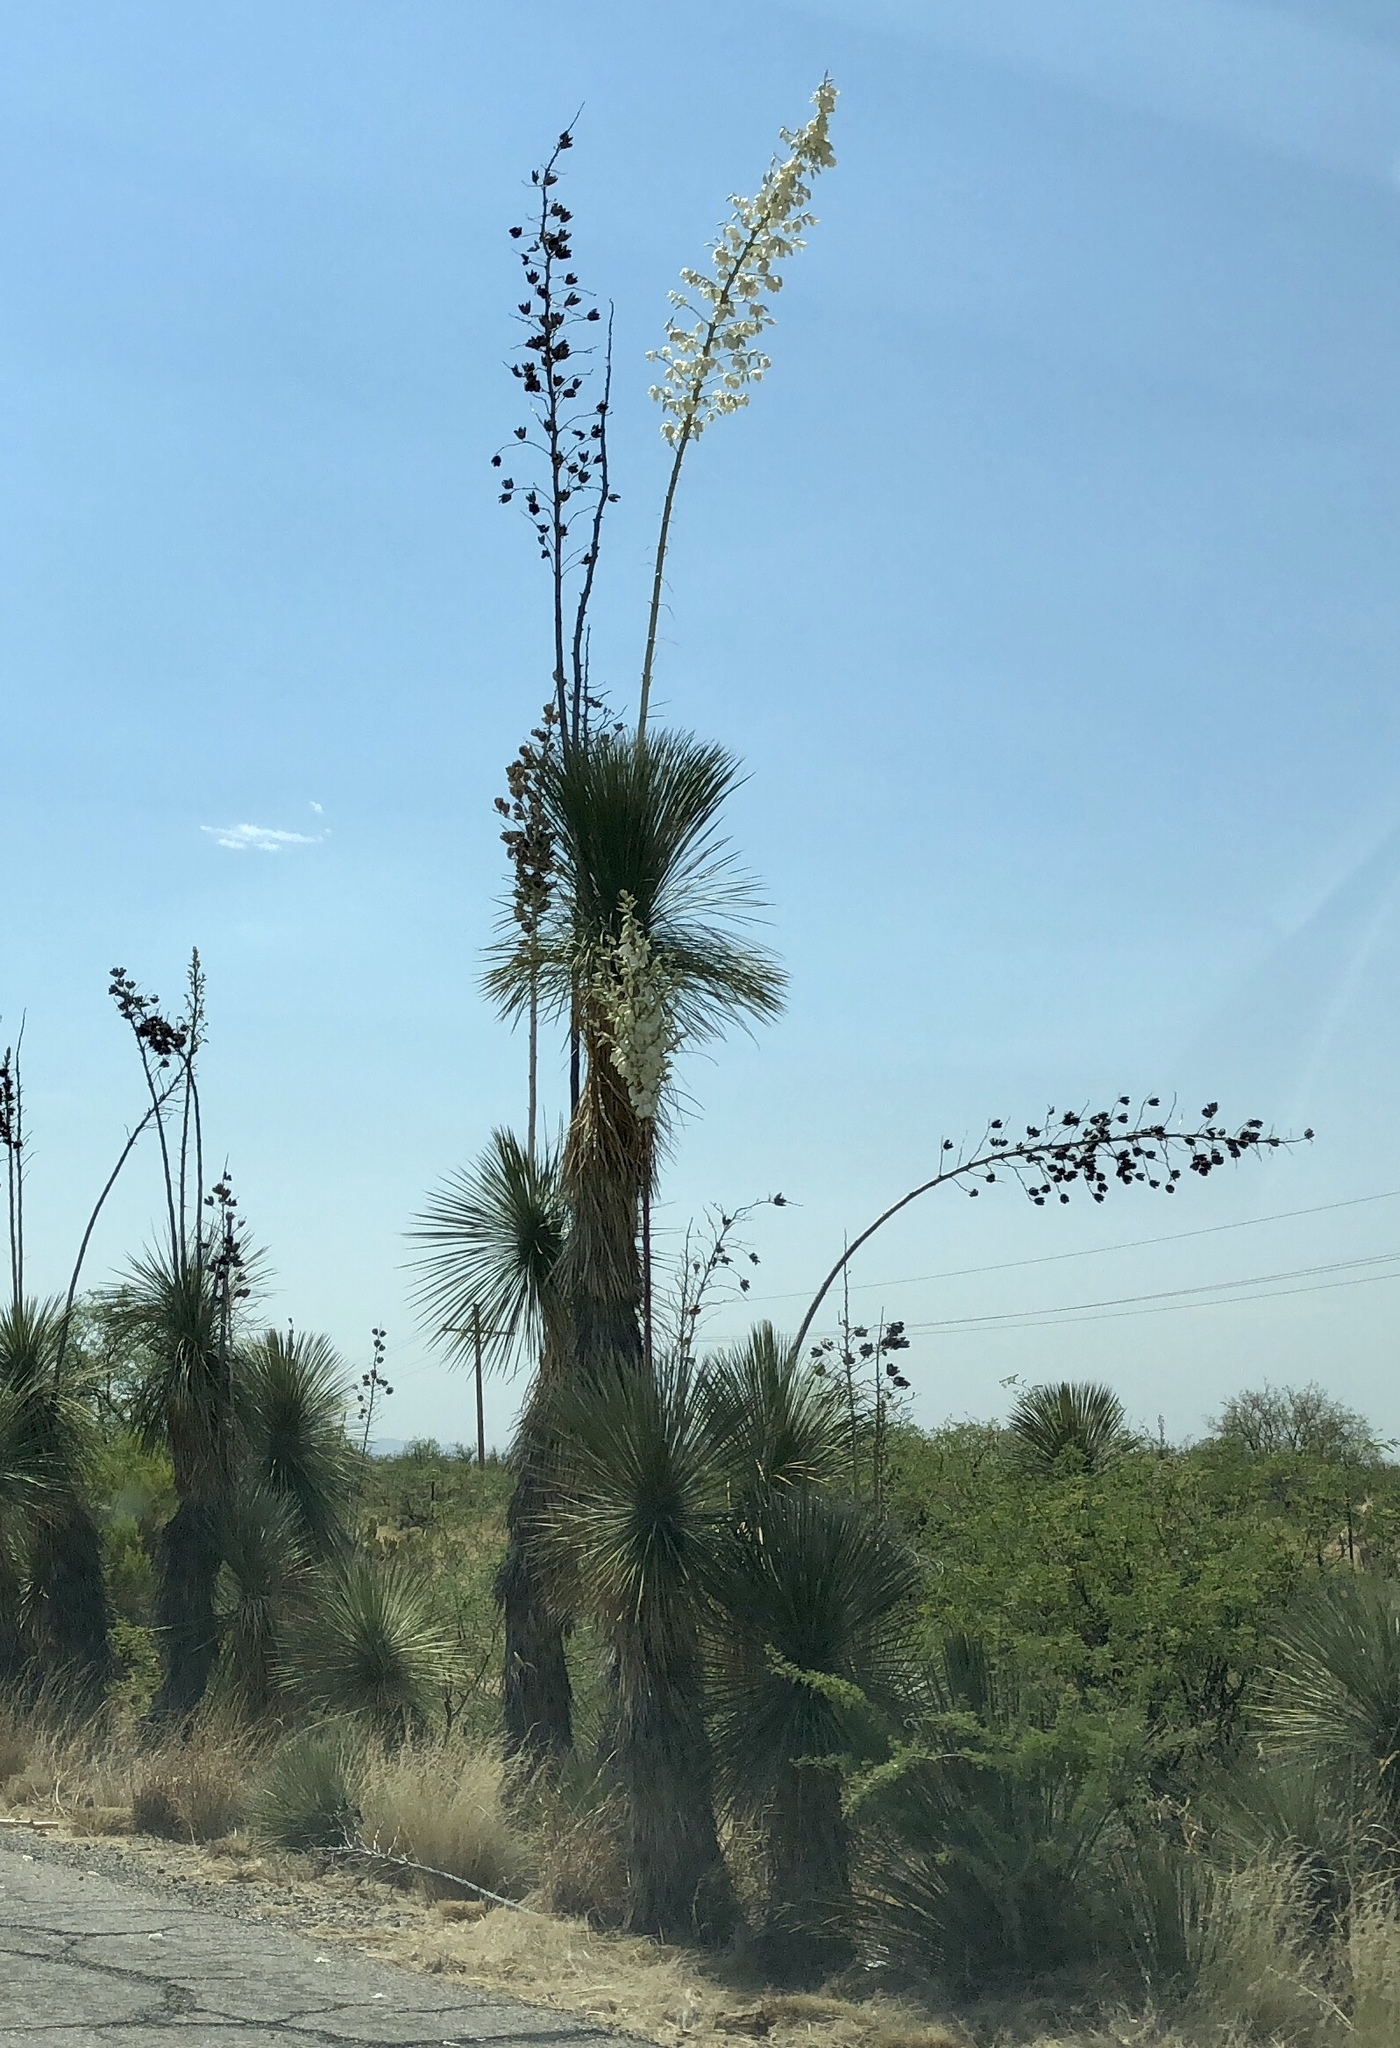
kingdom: Plantae
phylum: Tracheophyta
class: Liliopsida
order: Asparagales
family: Asparagaceae
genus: Yucca
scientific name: Yucca elata
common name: Palmella
